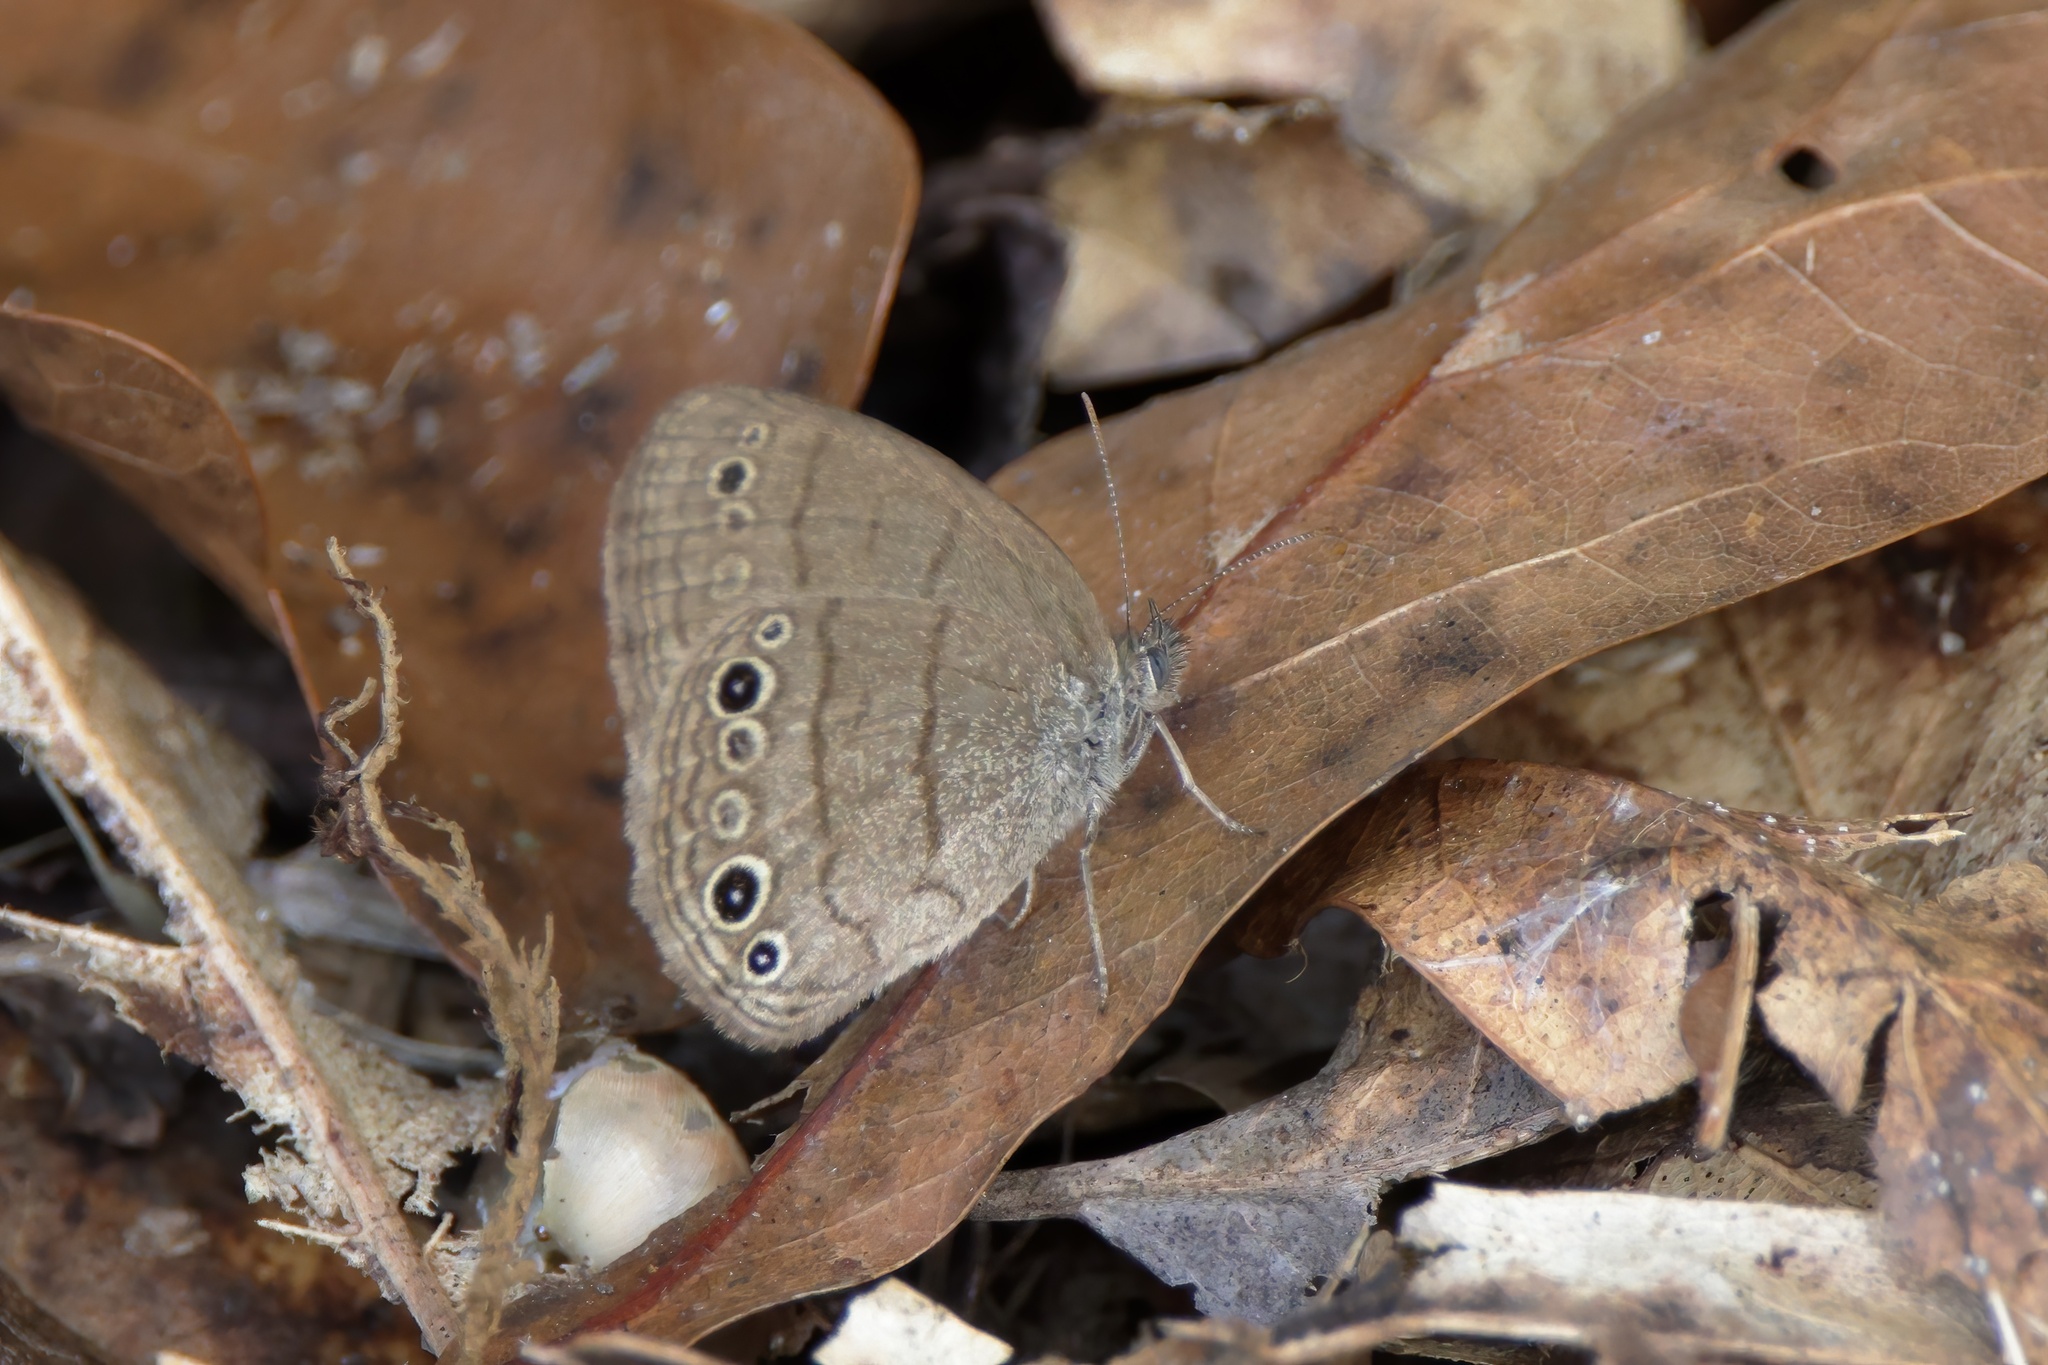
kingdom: Animalia
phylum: Arthropoda
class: Insecta
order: Lepidoptera
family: Nymphalidae
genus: Hermeuptychia
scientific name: Hermeuptychia hermes
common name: Hermes satyr
